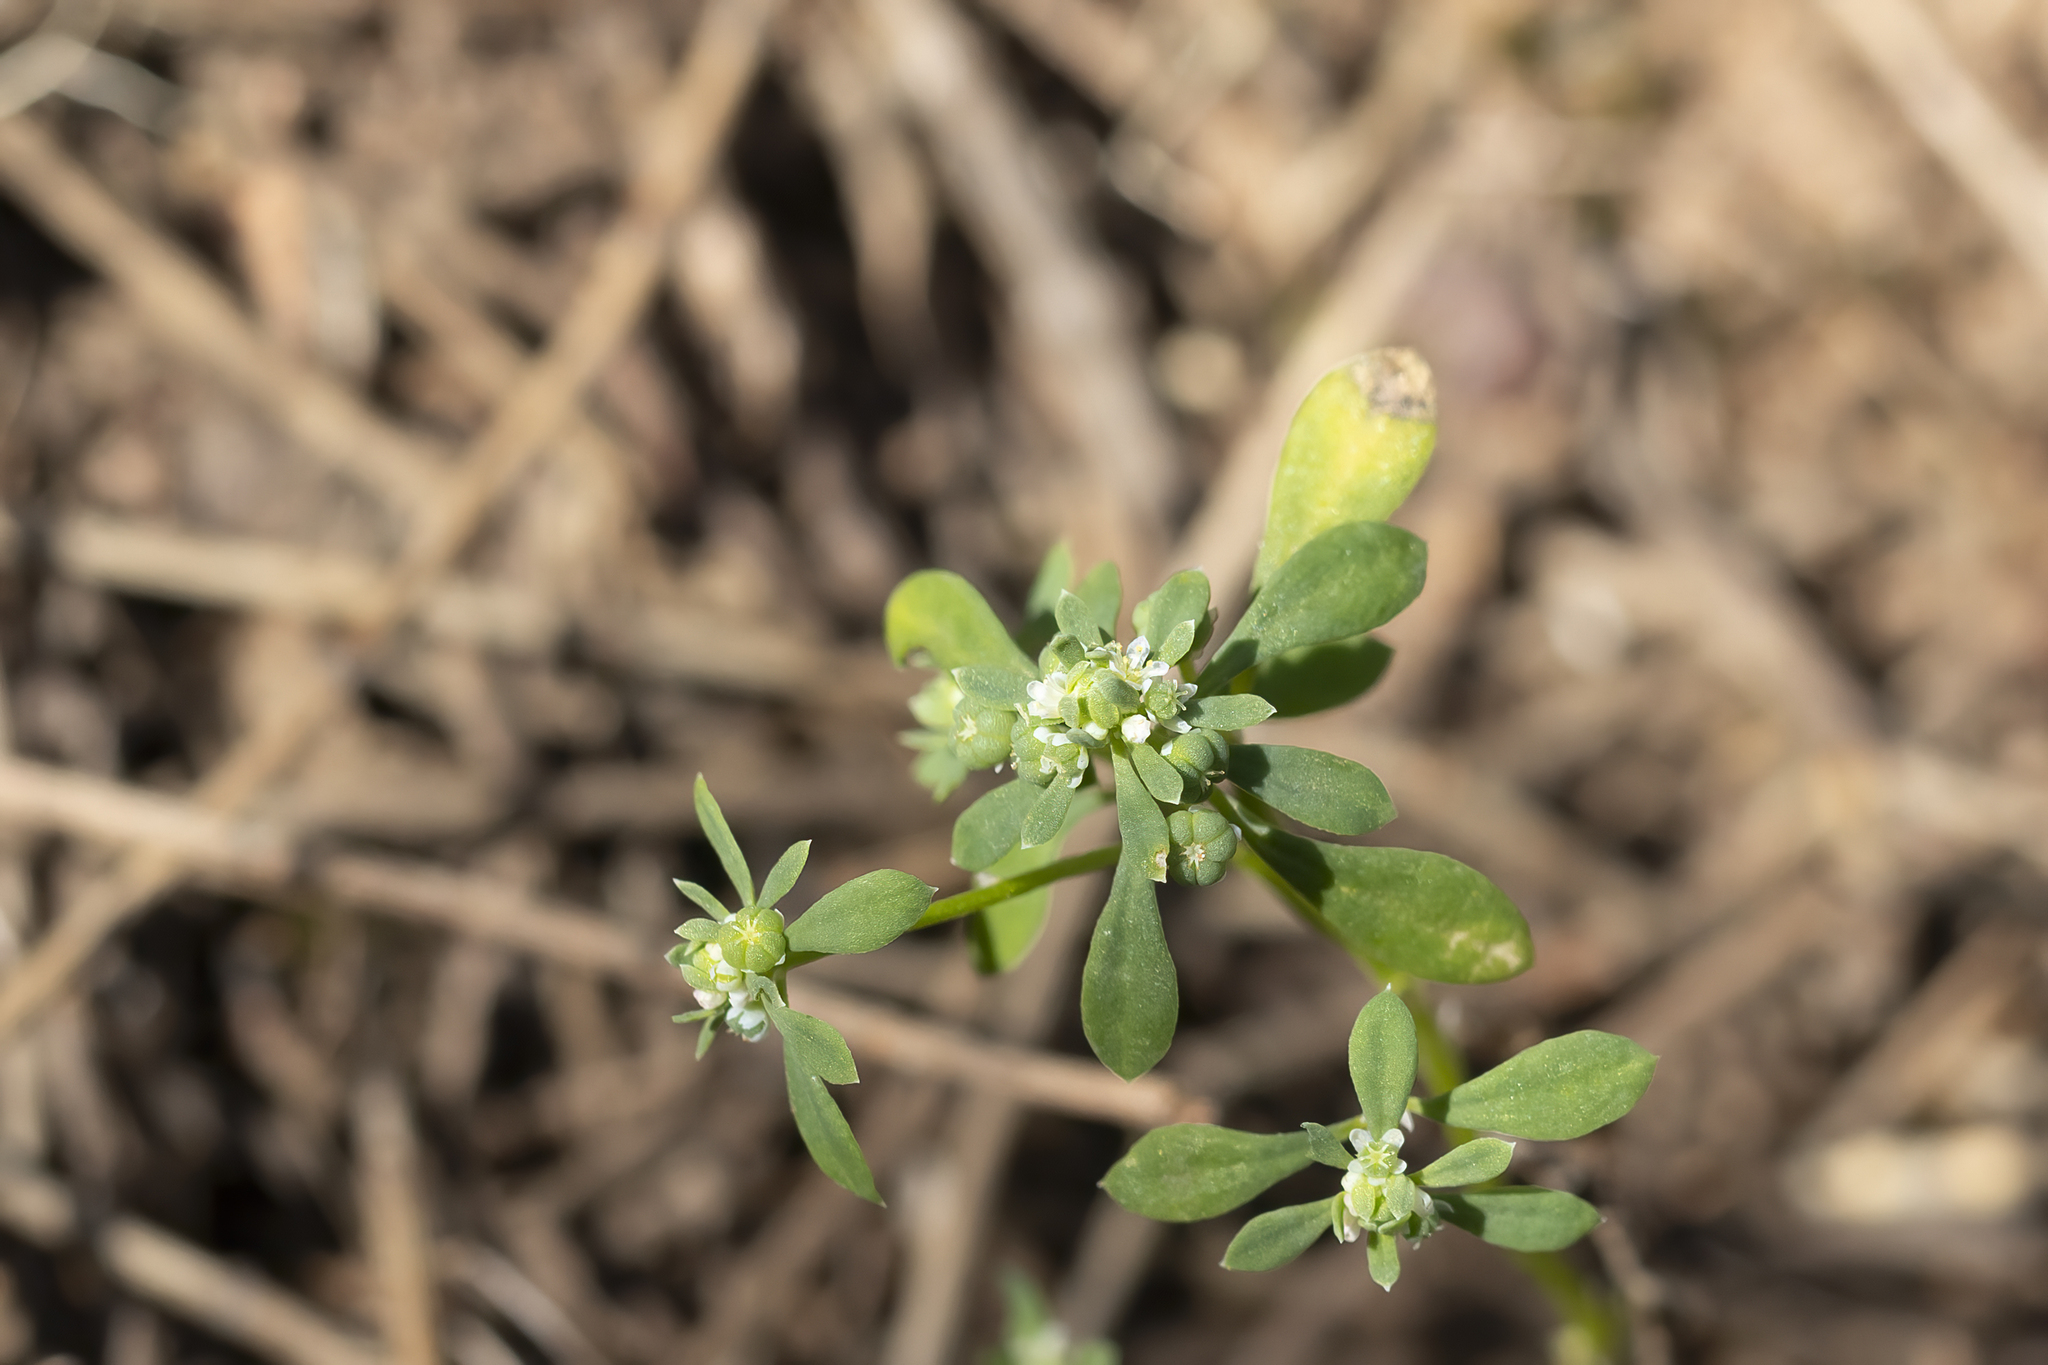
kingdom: Plantae
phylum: Tracheophyta
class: Magnoliopsida
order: Malpighiales
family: Phyllanthaceae
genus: Poranthera
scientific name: Poranthera microphylla
